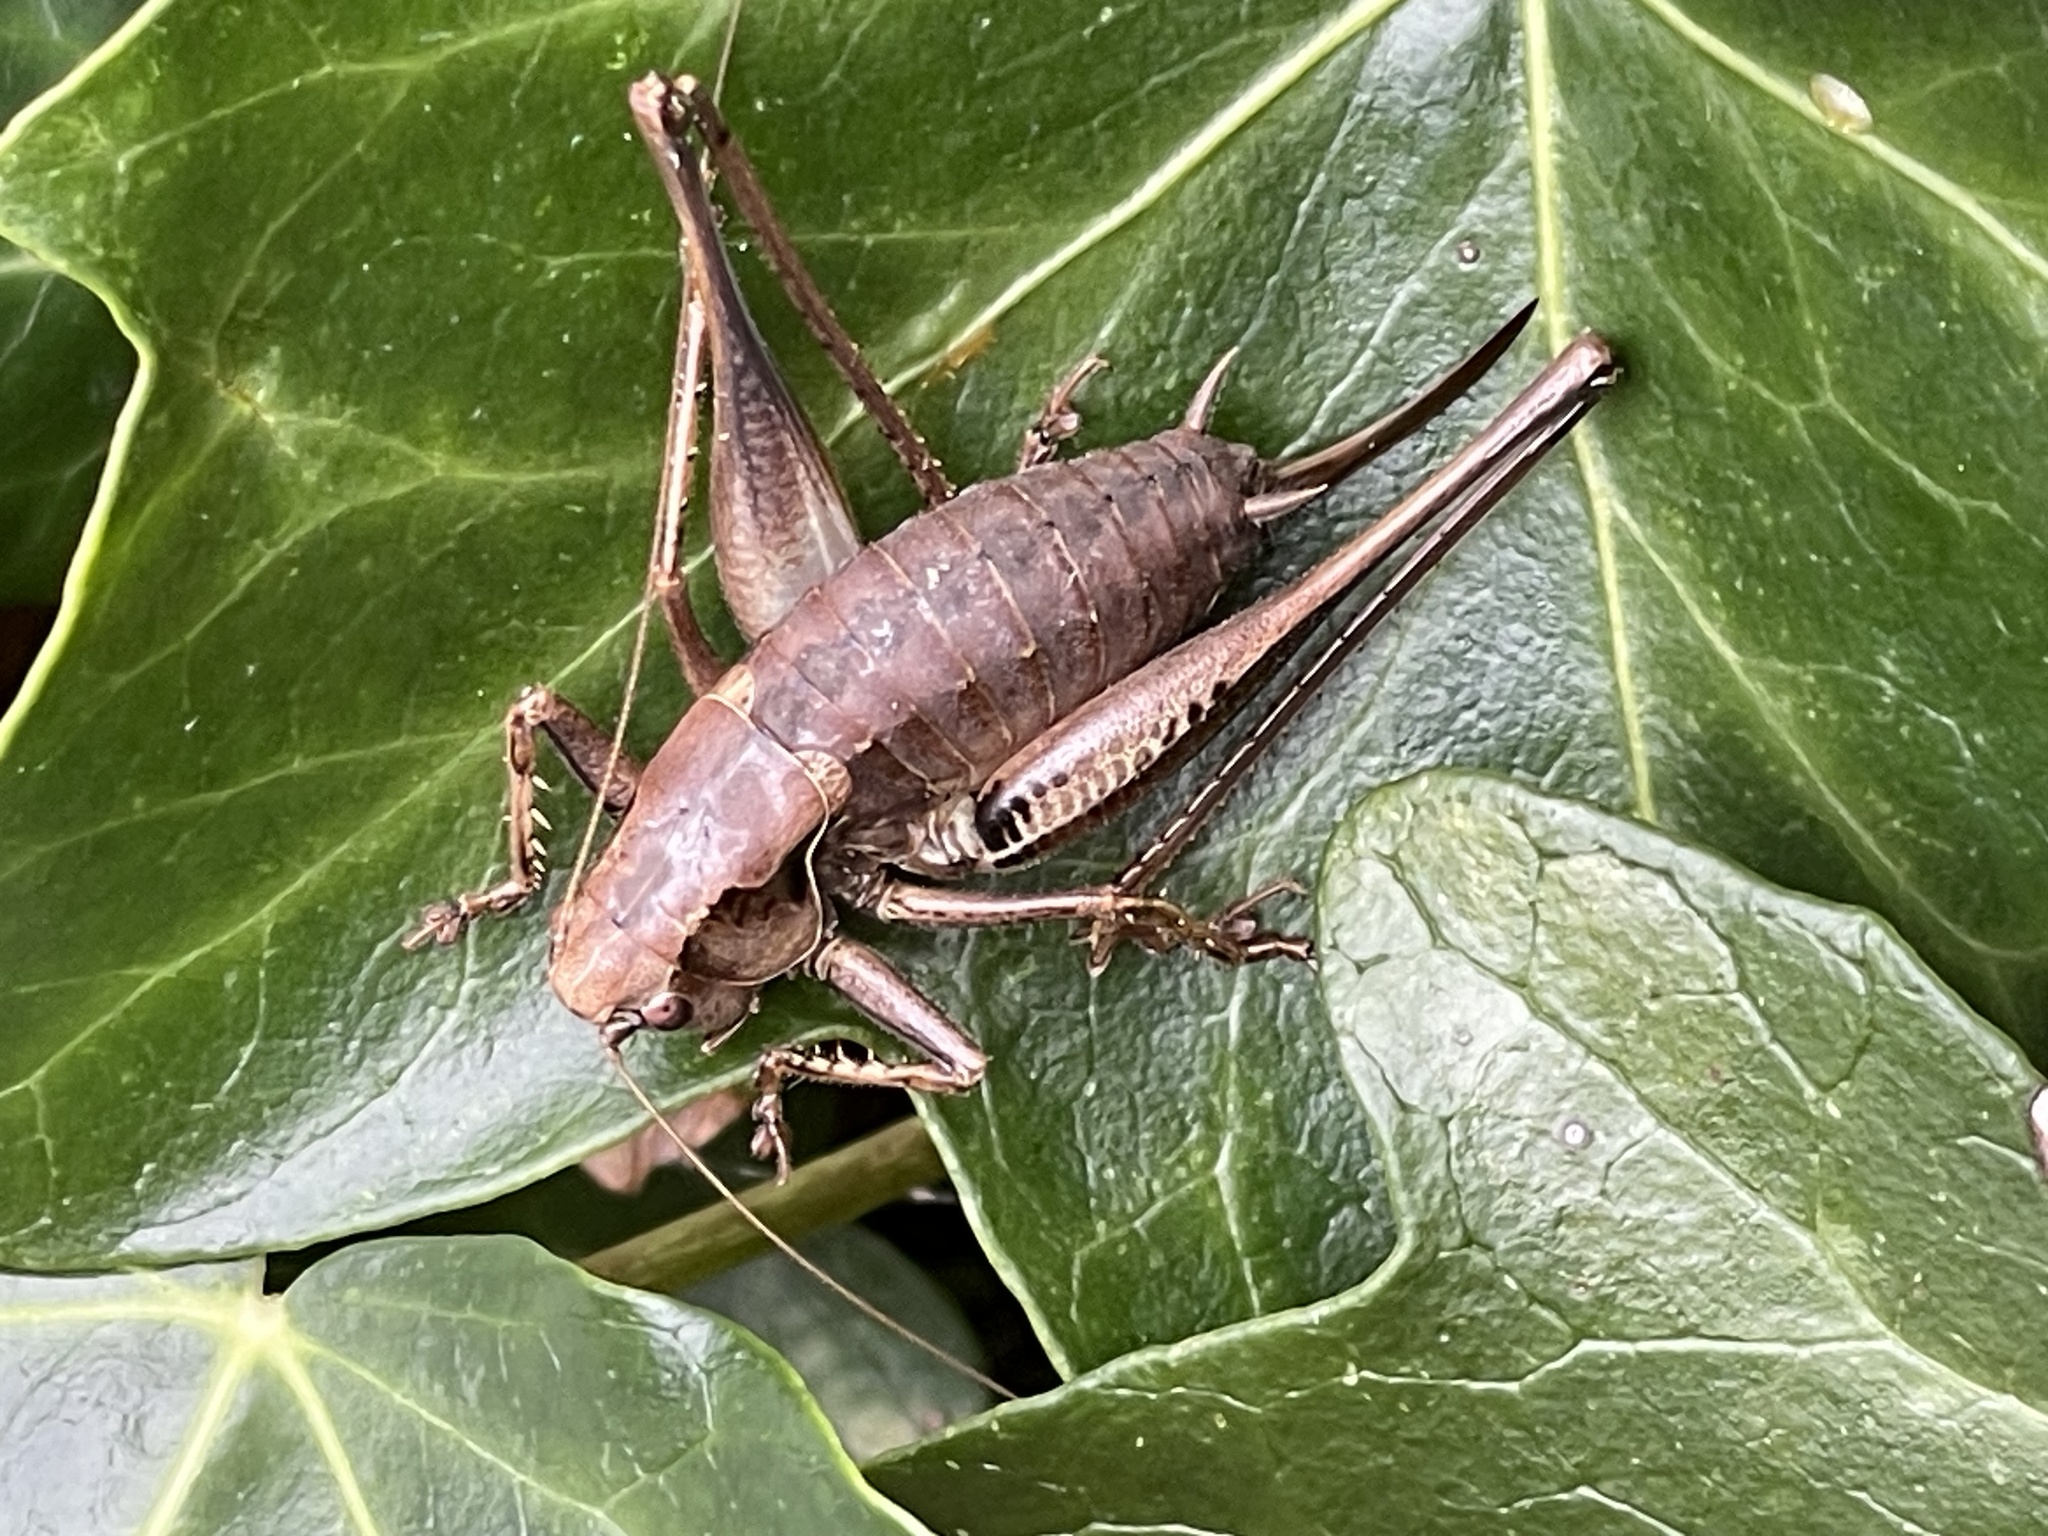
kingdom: Animalia
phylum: Arthropoda
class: Insecta
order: Orthoptera
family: Tettigoniidae
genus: Pholidoptera
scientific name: Pholidoptera griseoaptera
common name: Dark bush-cricket
